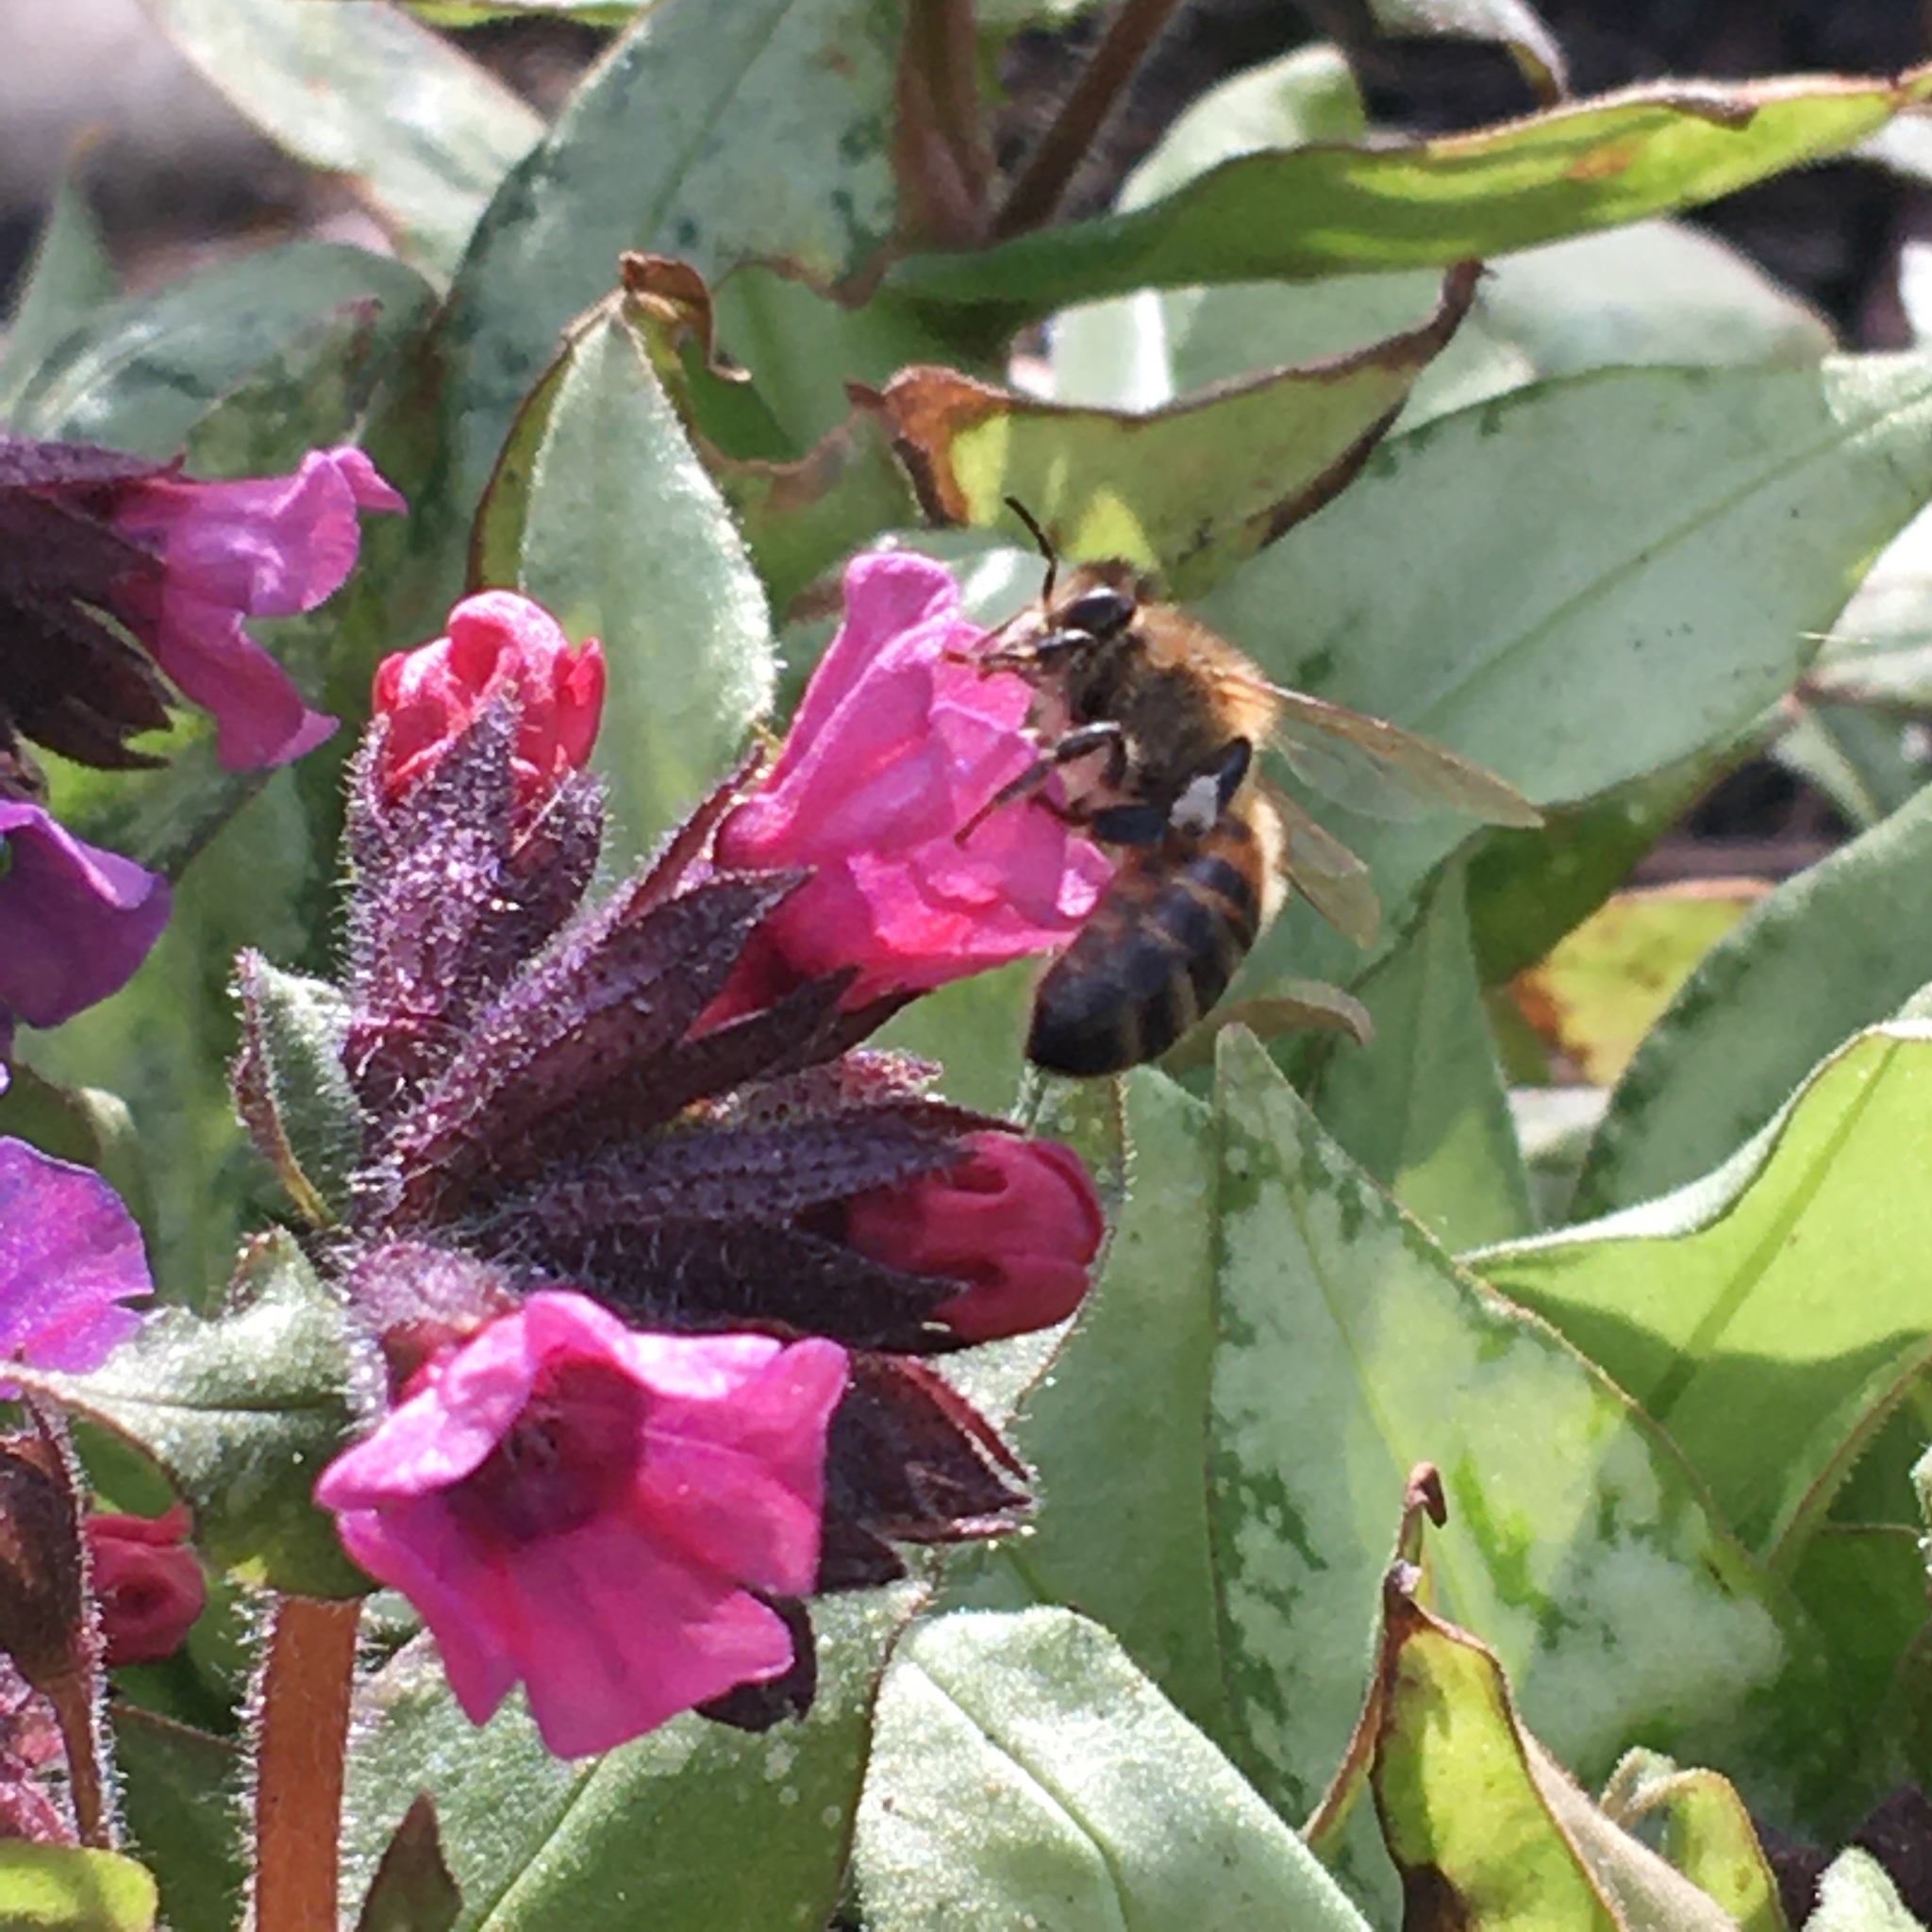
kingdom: Animalia
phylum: Arthropoda
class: Insecta
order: Hymenoptera
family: Apidae
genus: Apis
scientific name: Apis mellifera
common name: Honey bee
